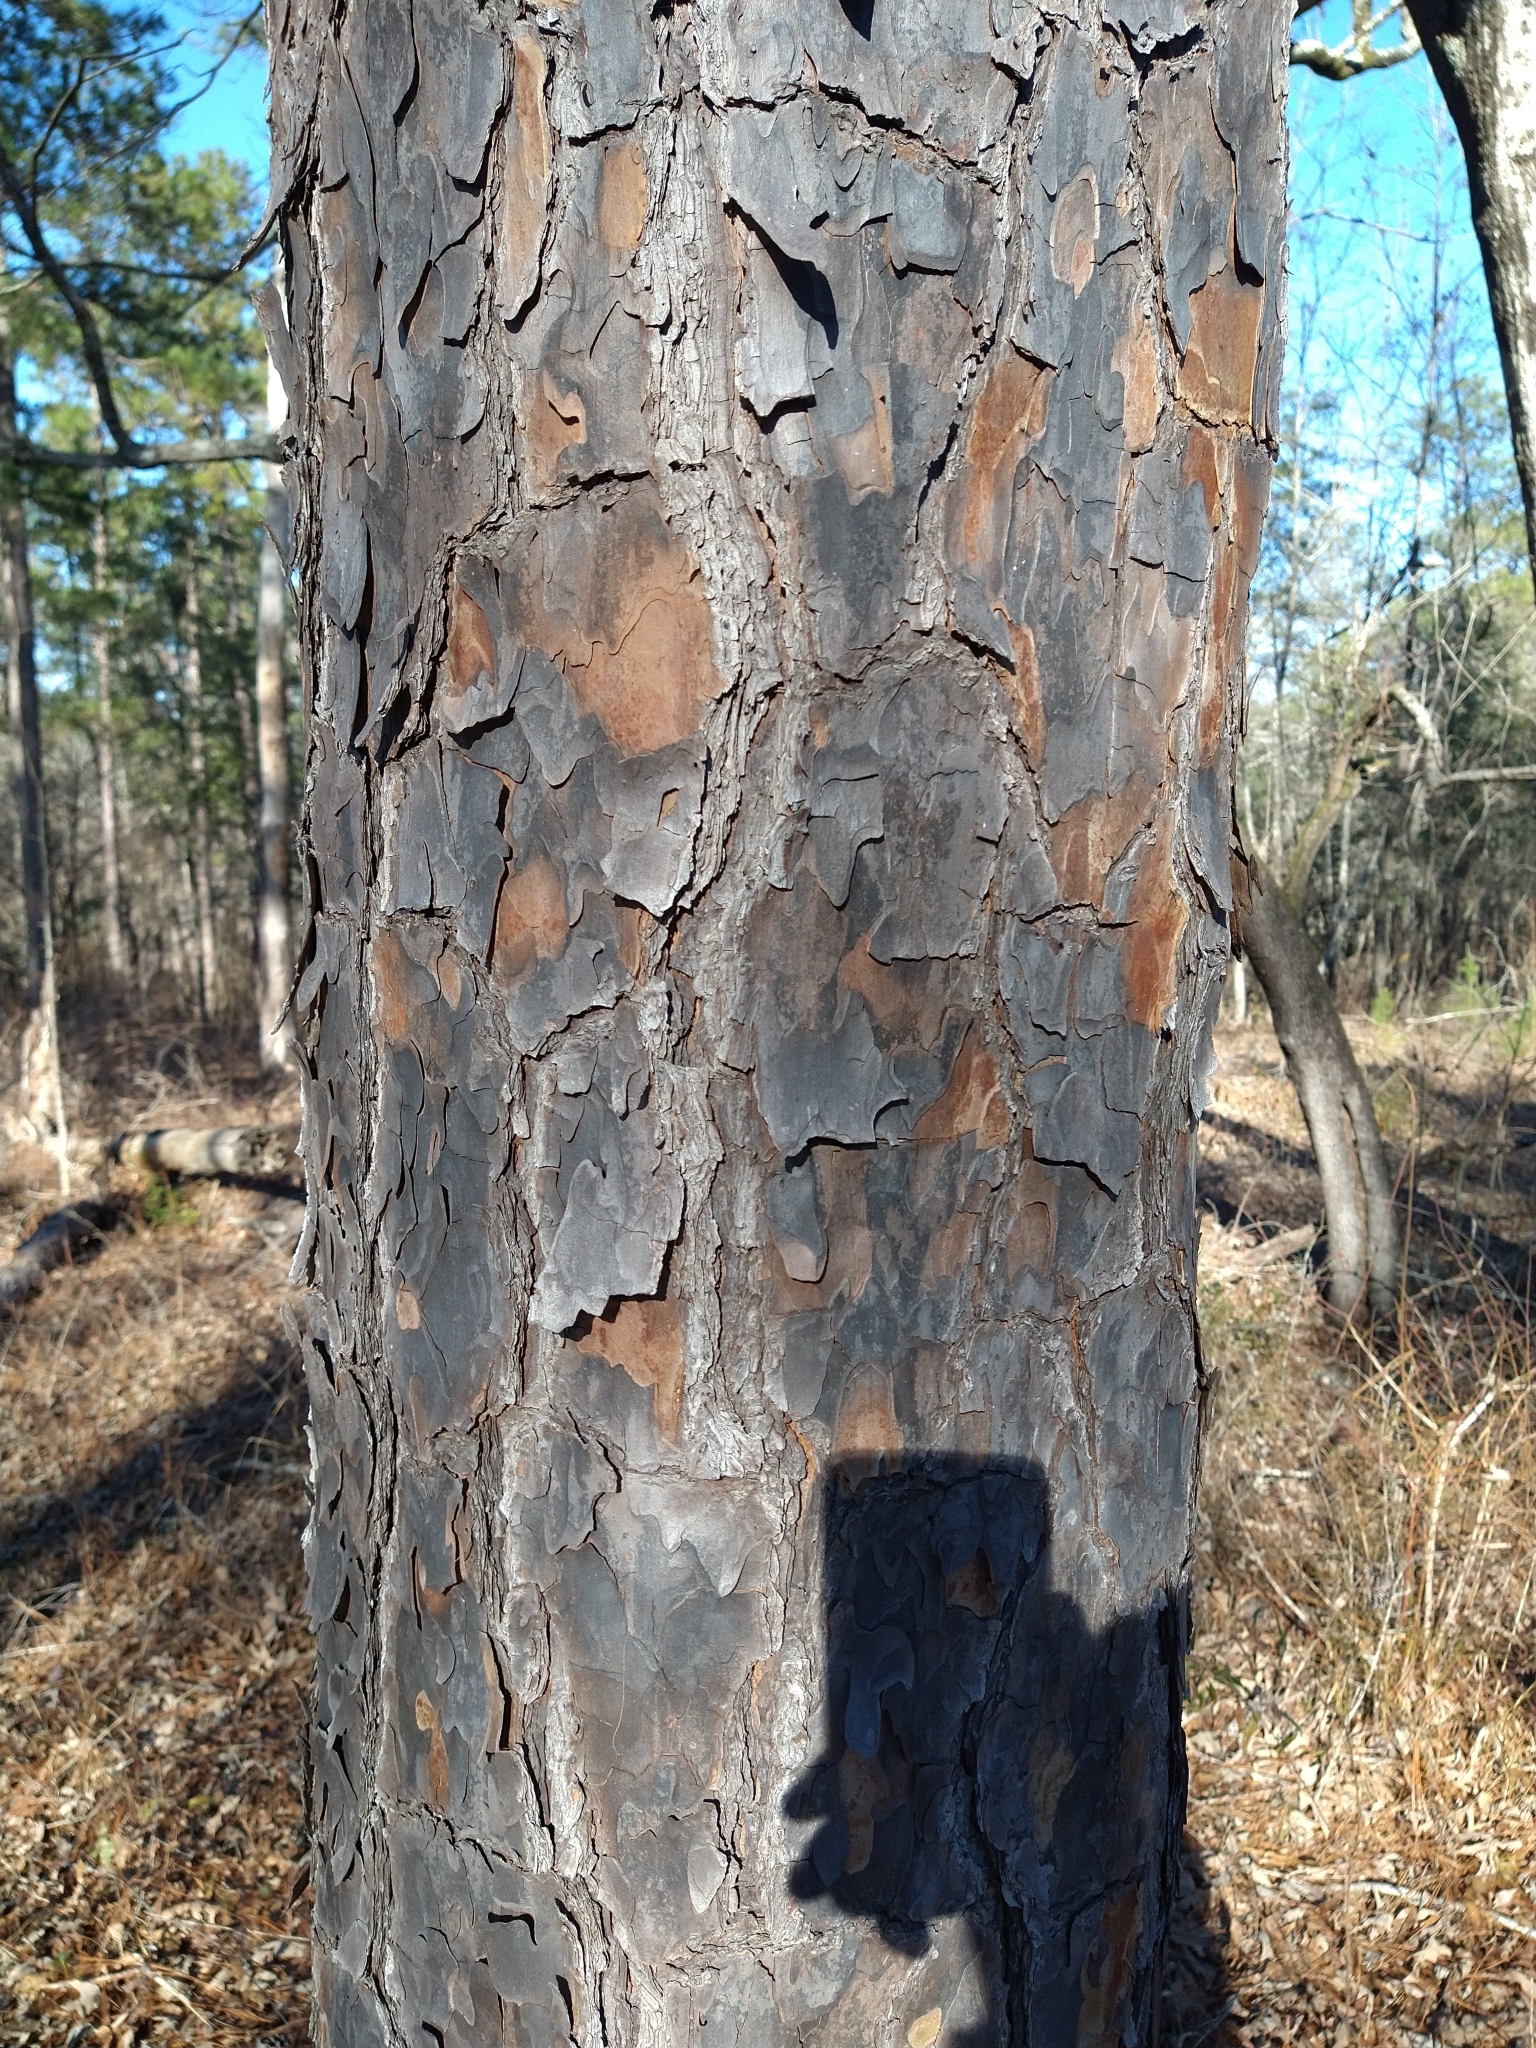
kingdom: Plantae
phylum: Tracheophyta
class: Pinopsida
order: Pinales
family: Pinaceae
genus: Pinus
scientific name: Pinus echinata
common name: Shortleaf pine
